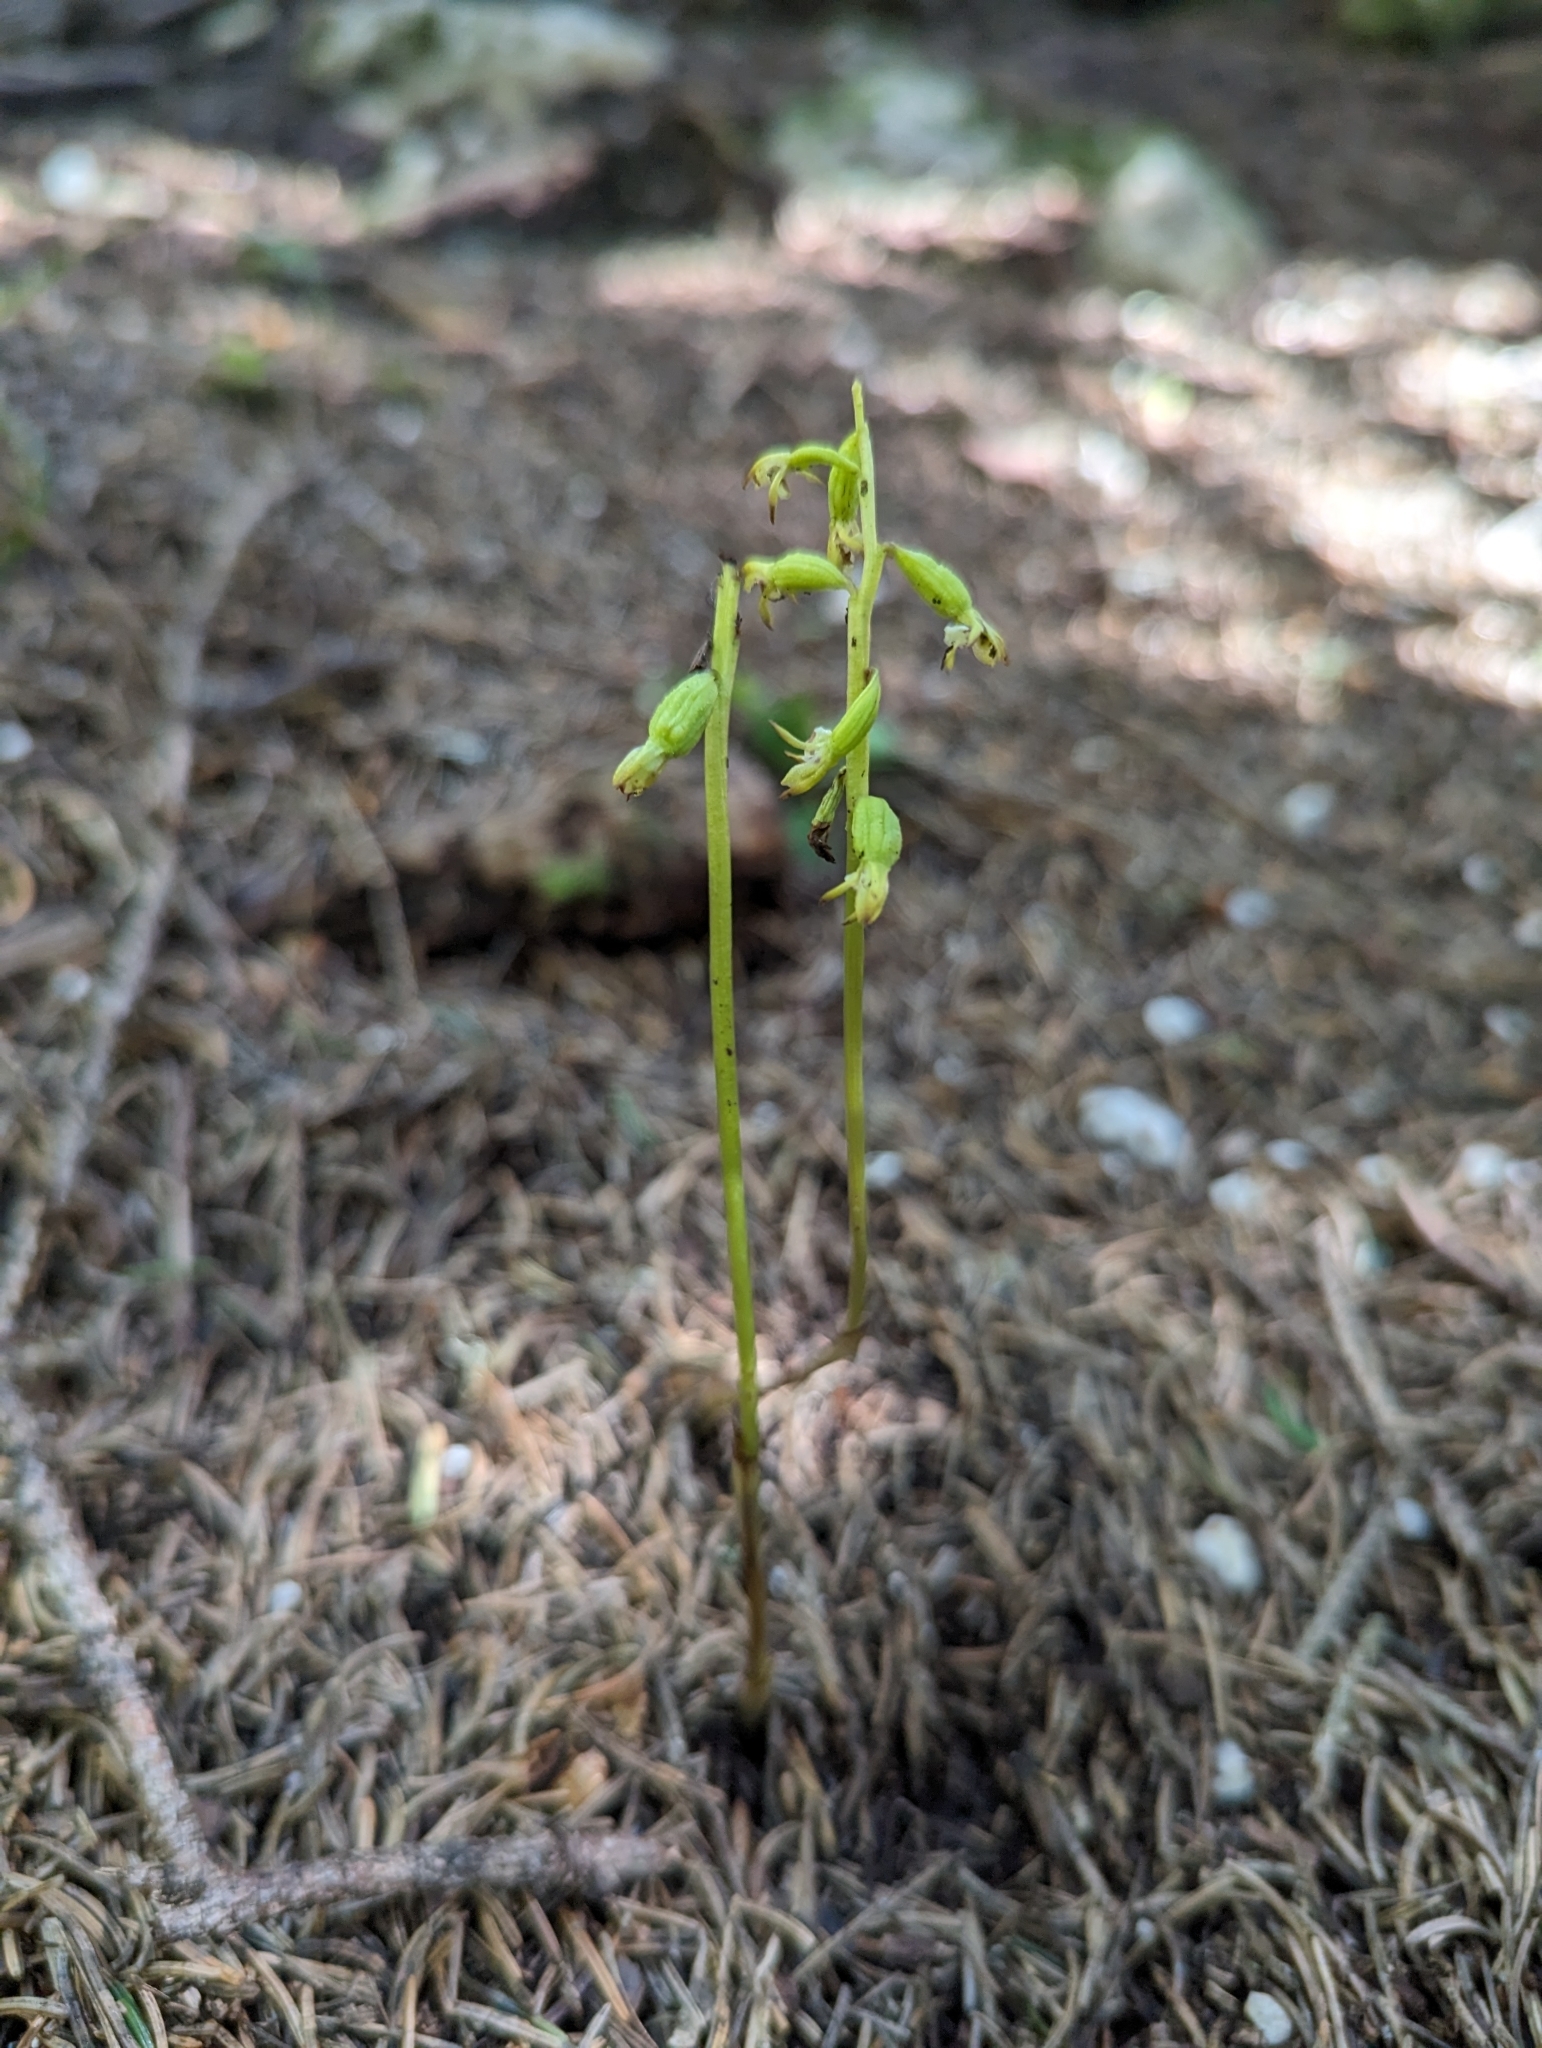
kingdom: Plantae
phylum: Tracheophyta
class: Liliopsida
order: Asparagales
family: Orchidaceae
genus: Corallorhiza
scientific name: Corallorhiza trifida
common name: Yellow coralroot
